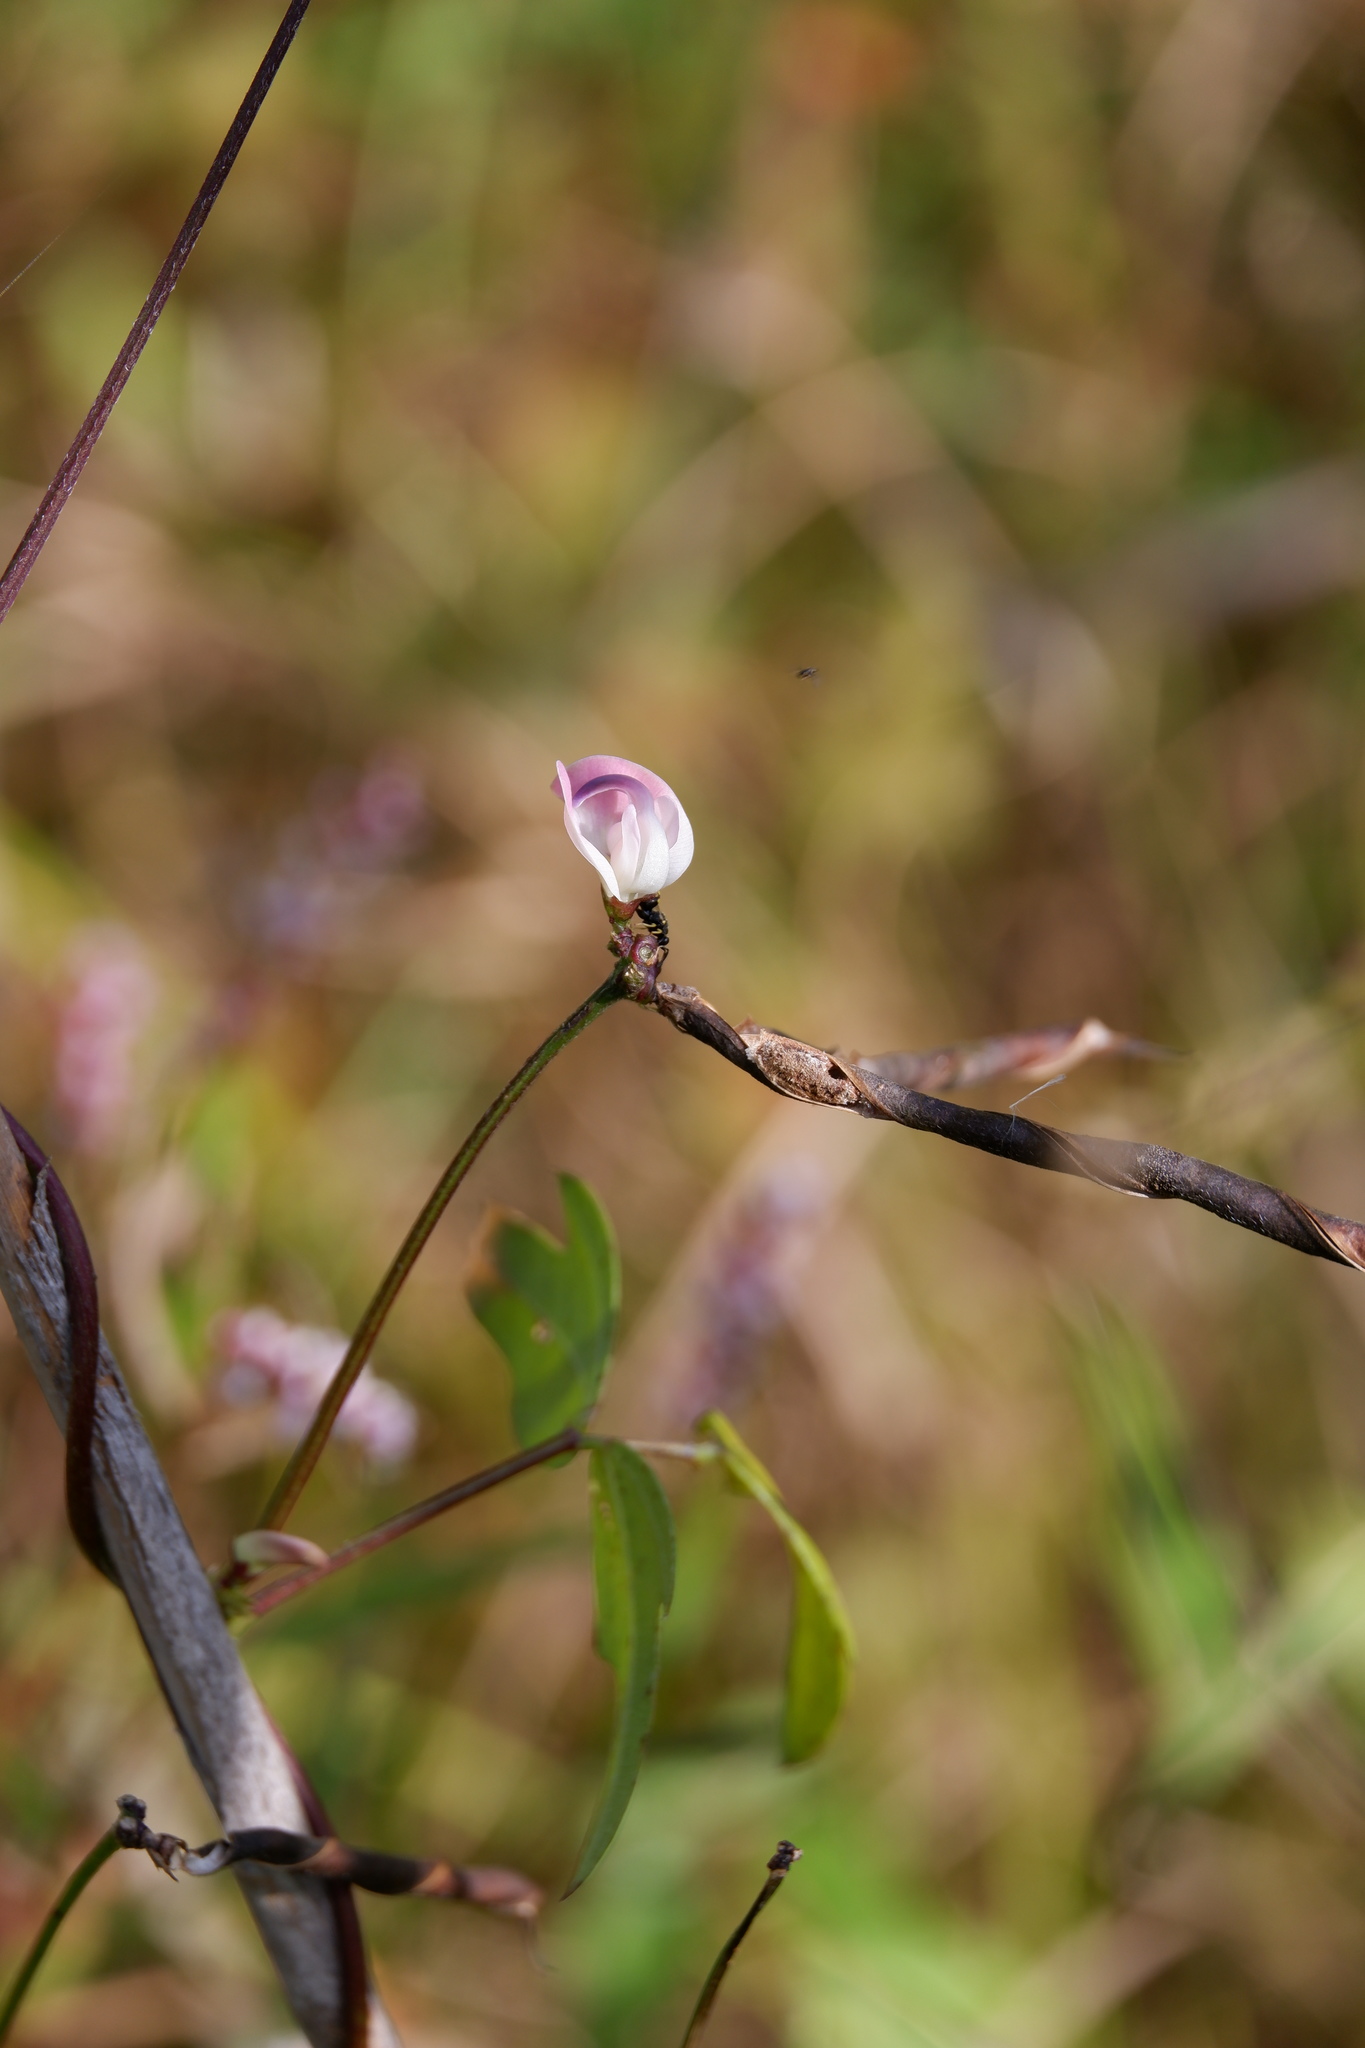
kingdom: Plantae
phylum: Tracheophyta
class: Magnoliopsida
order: Fabales
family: Fabaceae
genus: Strophostyles
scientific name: Strophostyles helvola
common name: Trailing wild bean
